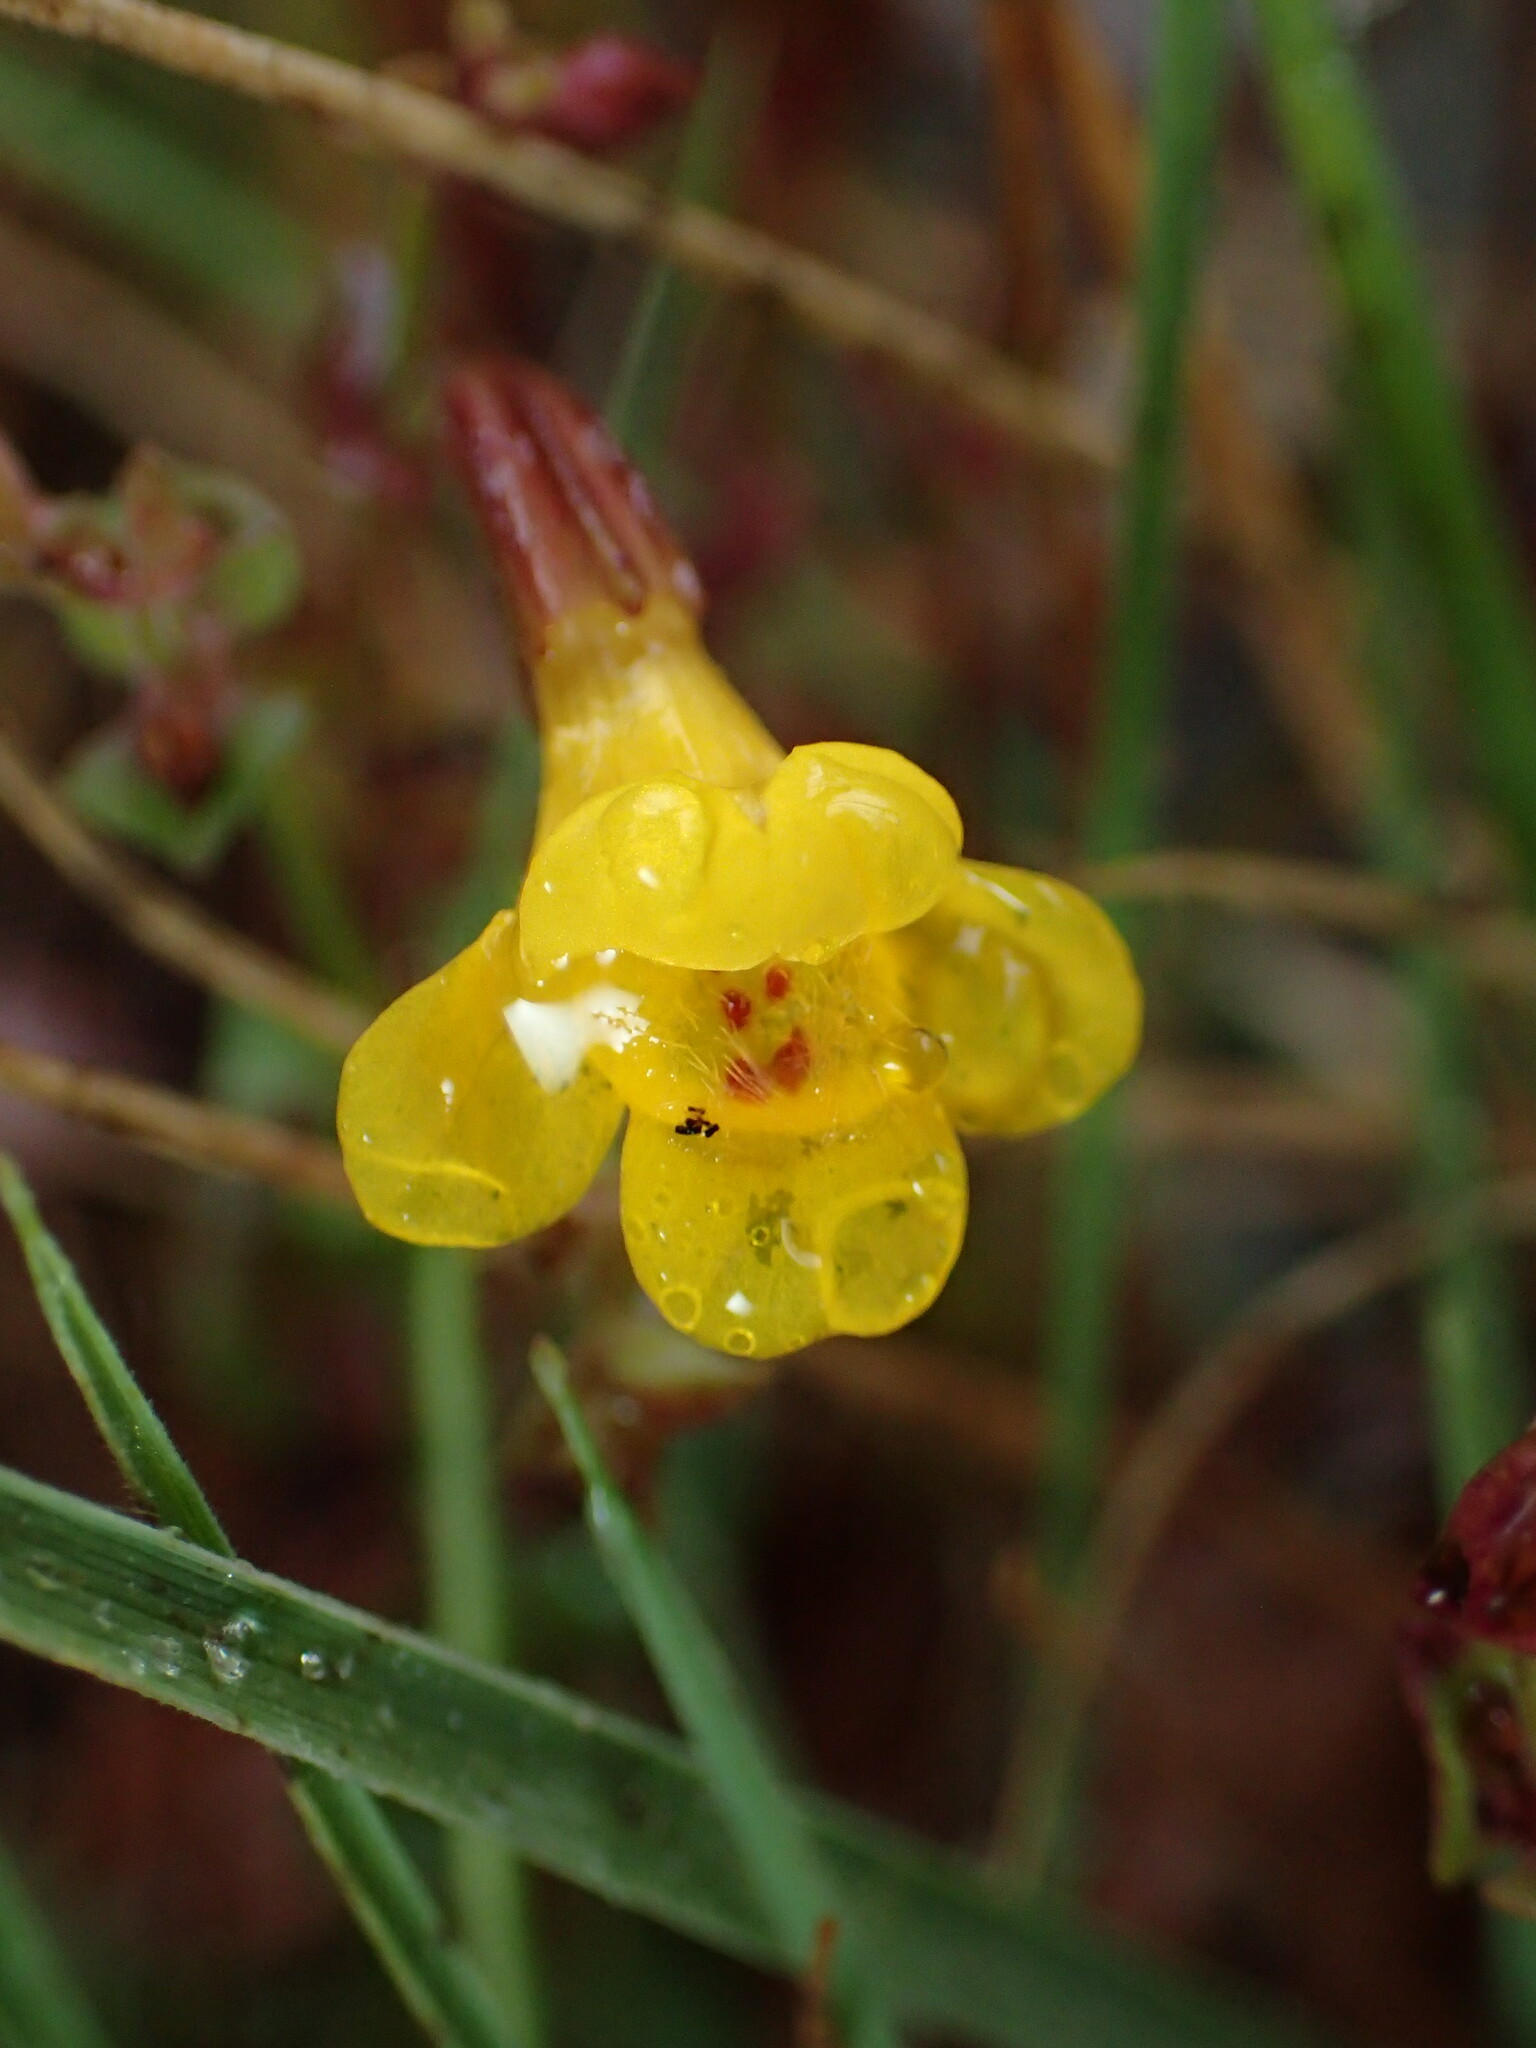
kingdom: Plantae
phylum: Tracheophyta
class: Magnoliopsida
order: Lamiales
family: Phrymaceae
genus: Erythranthe
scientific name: Erythranthe serpentinicola
